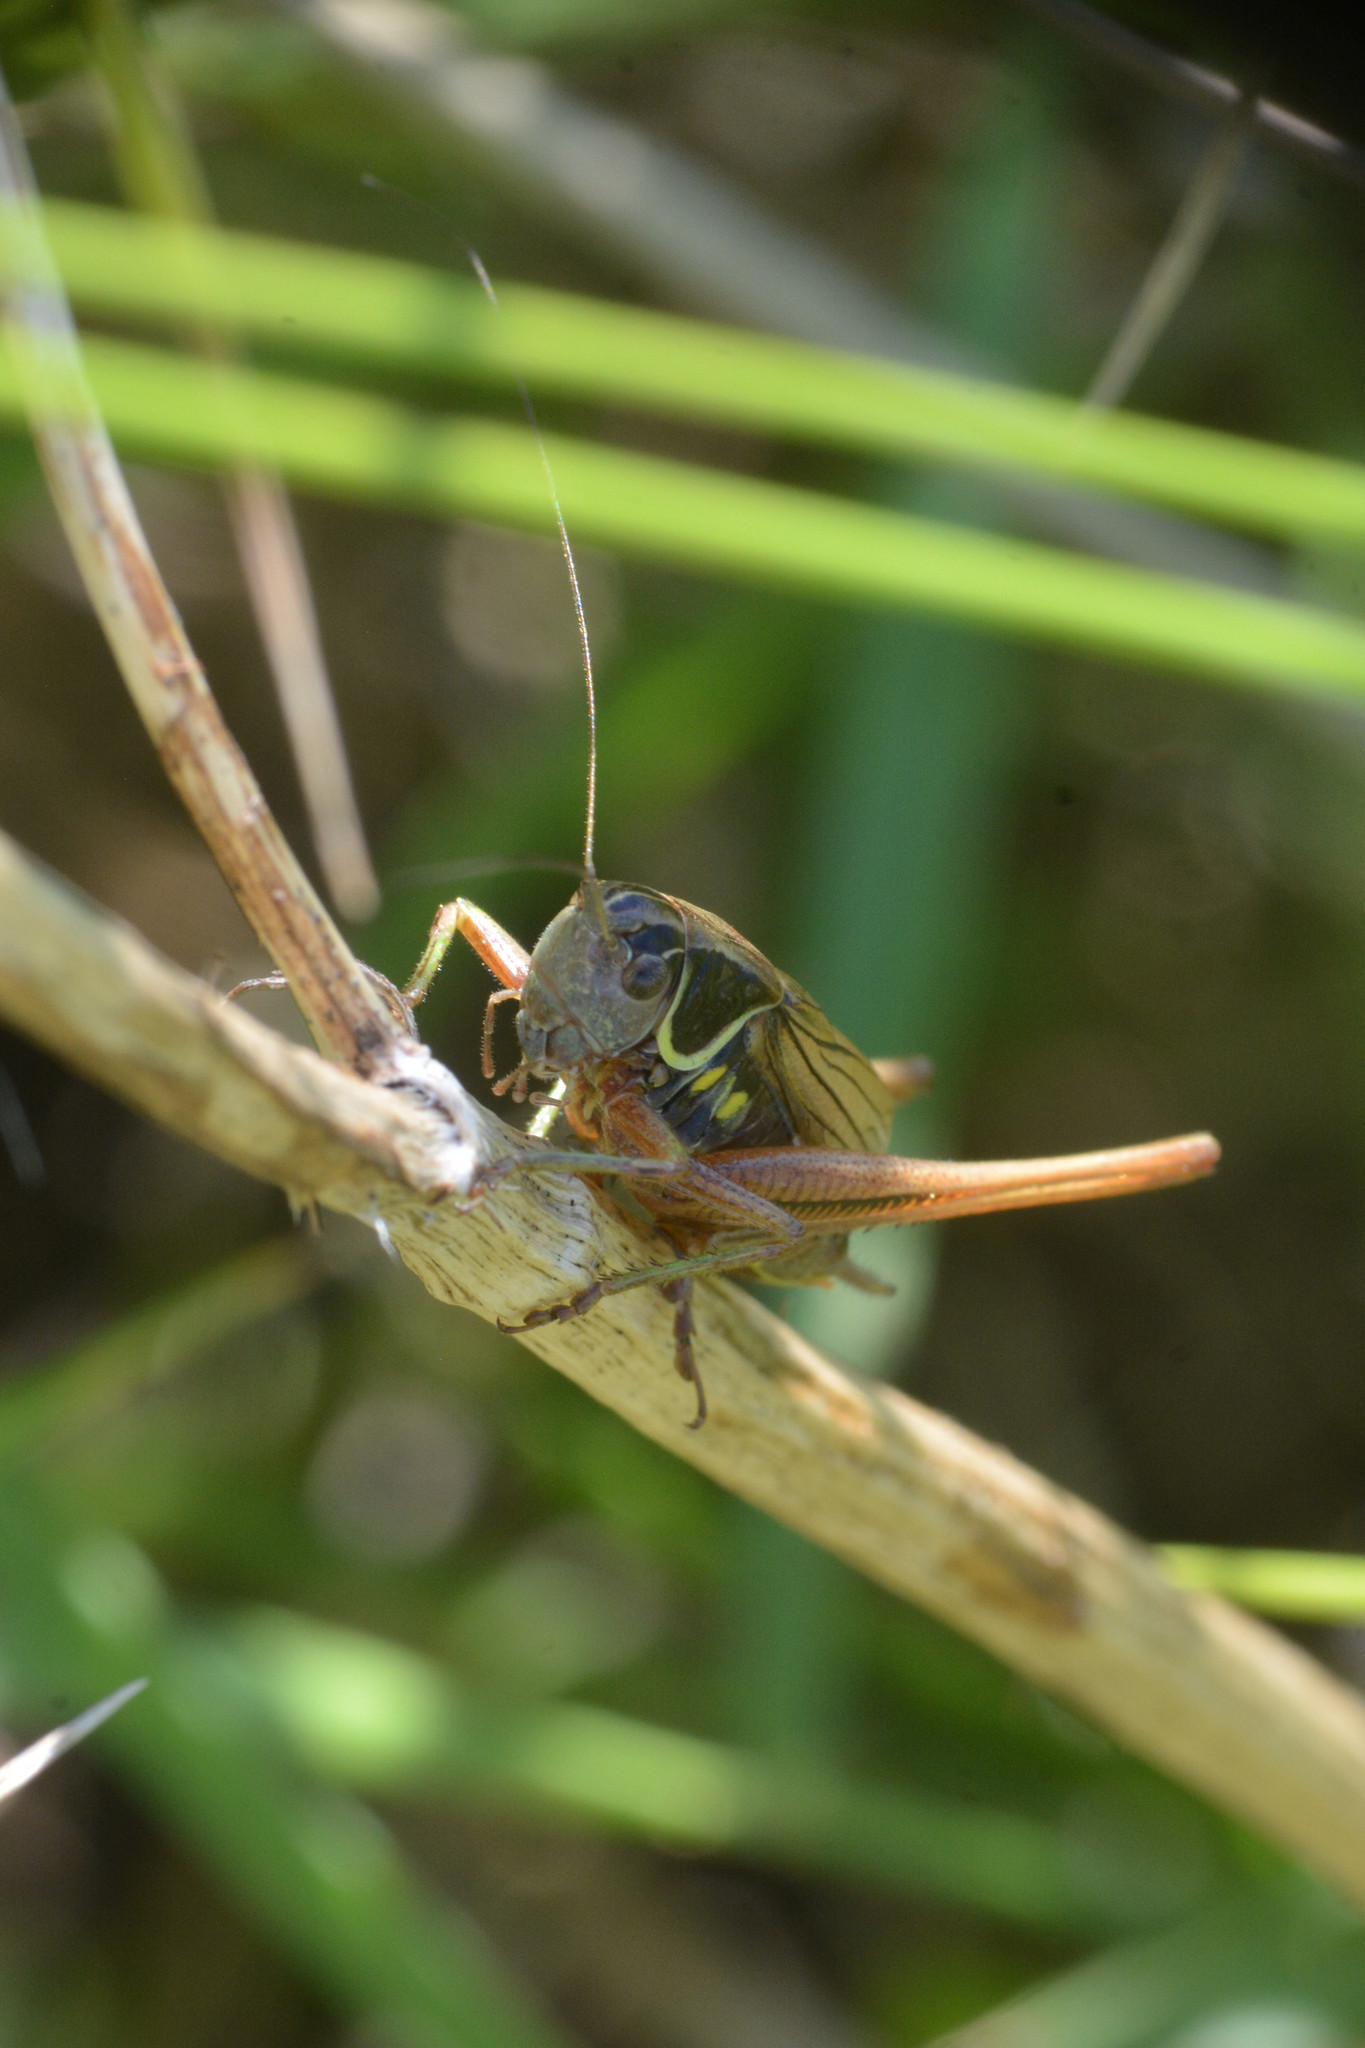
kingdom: Animalia
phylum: Arthropoda
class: Insecta
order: Orthoptera
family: Tettigoniidae
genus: Roeseliana
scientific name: Roeseliana roeselii
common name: Roesel's bush cricket
